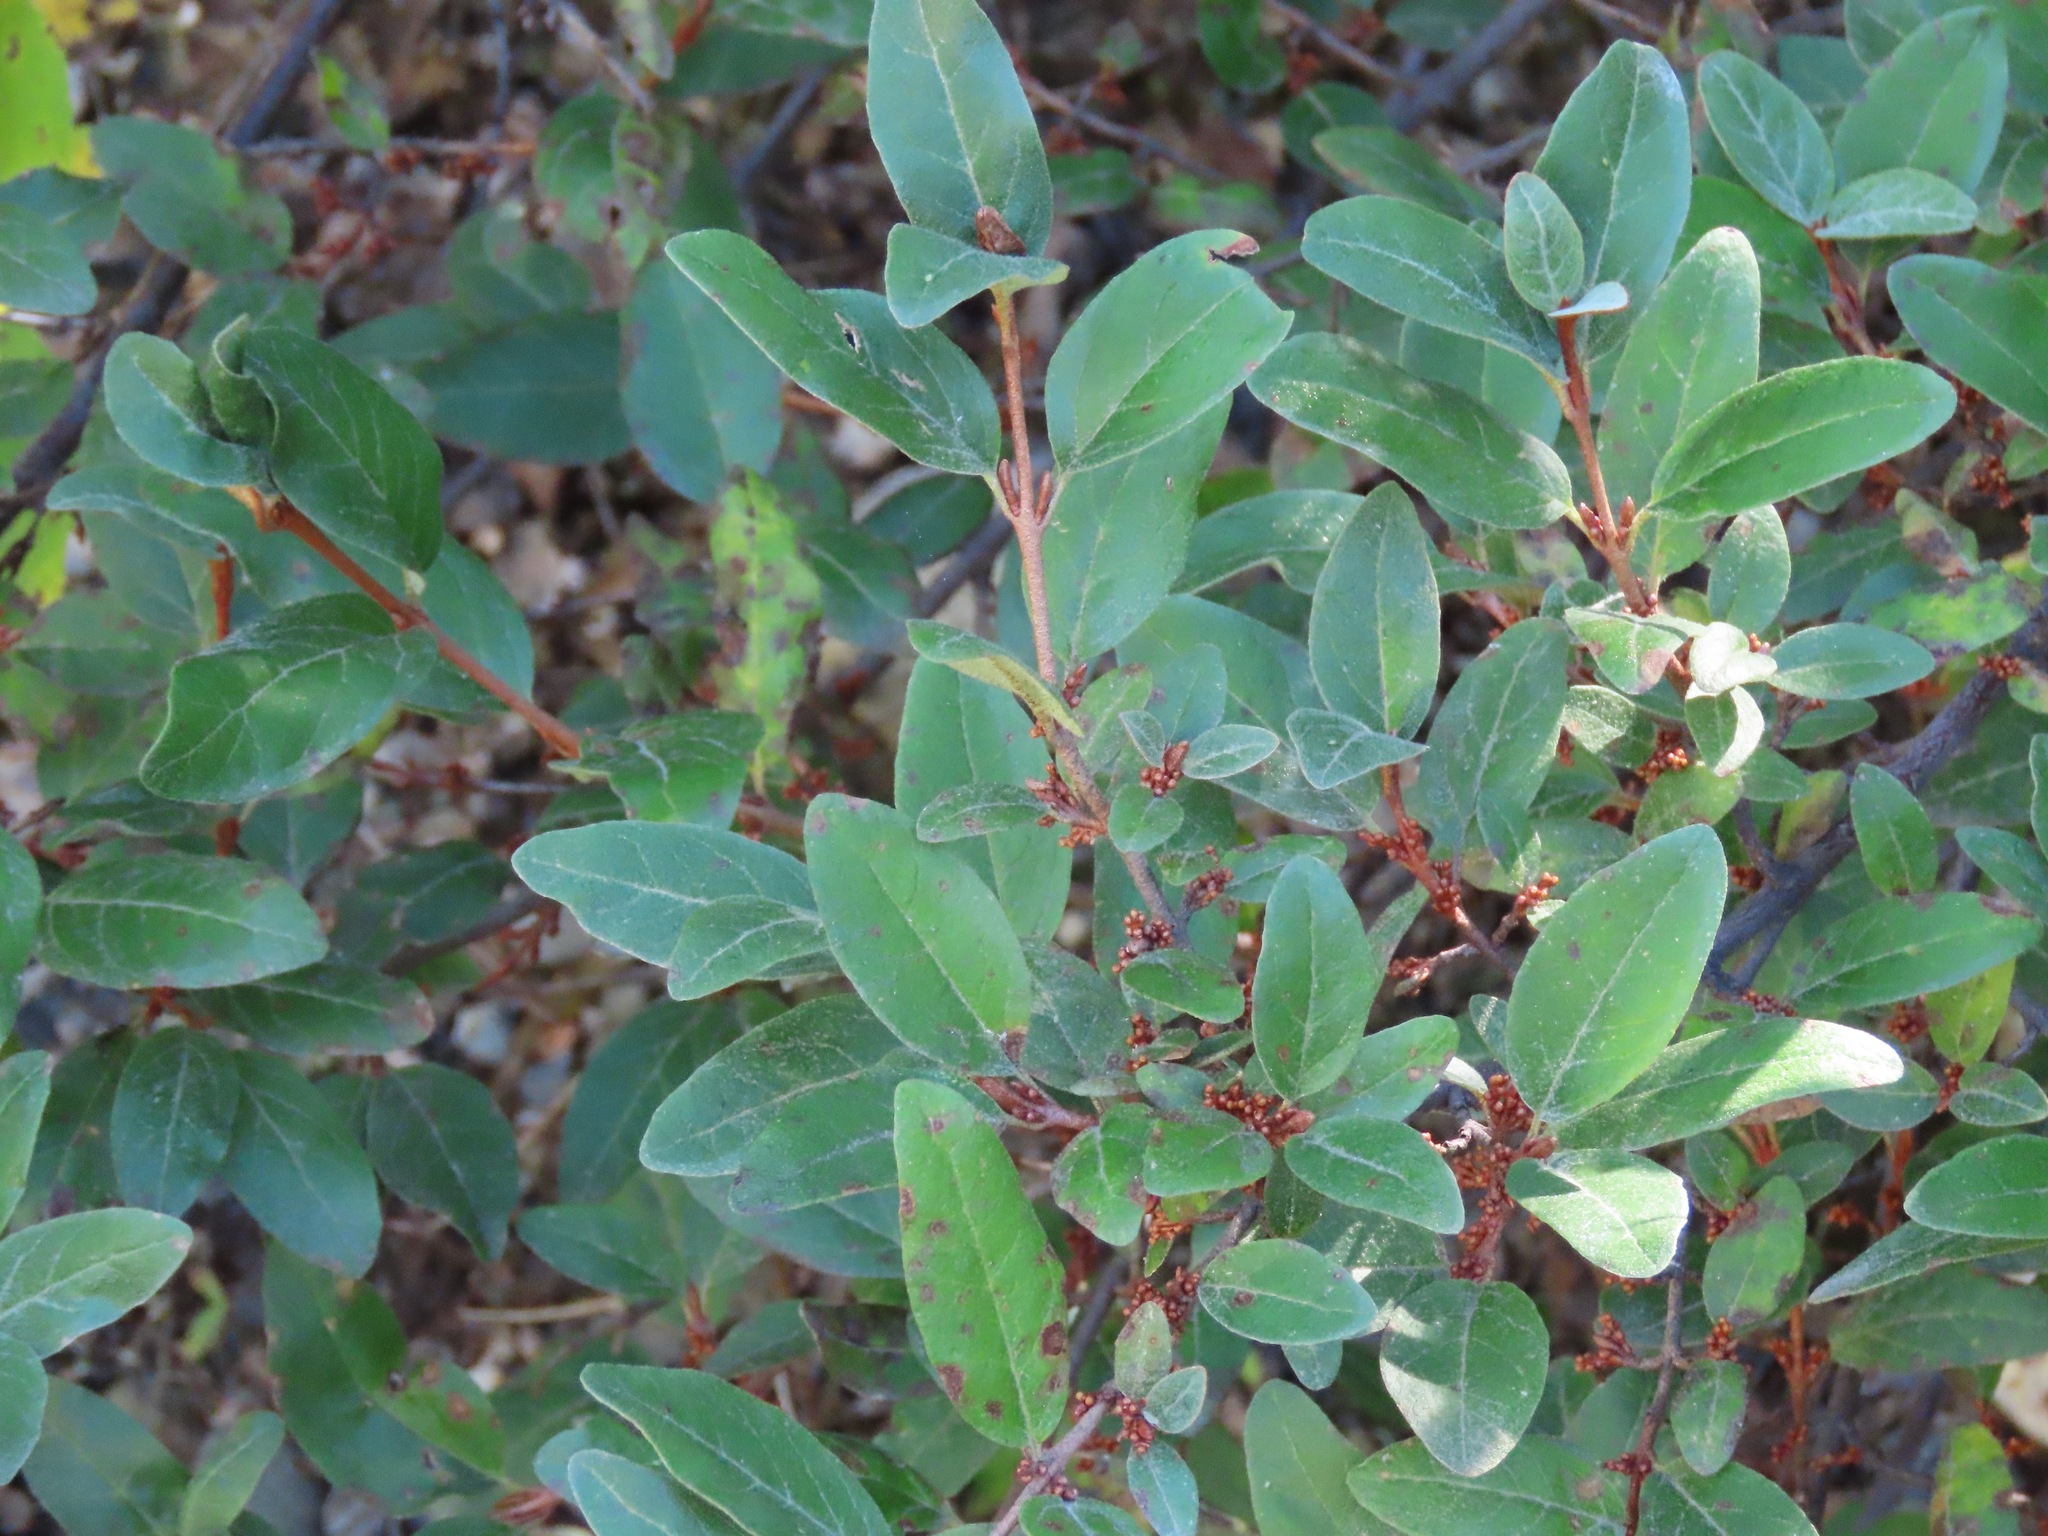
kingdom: Plantae
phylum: Tracheophyta
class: Magnoliopsida
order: Rosales
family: Elaeagnaceae
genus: Shepherdia
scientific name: Shepherdia canadensis
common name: Soapberry
